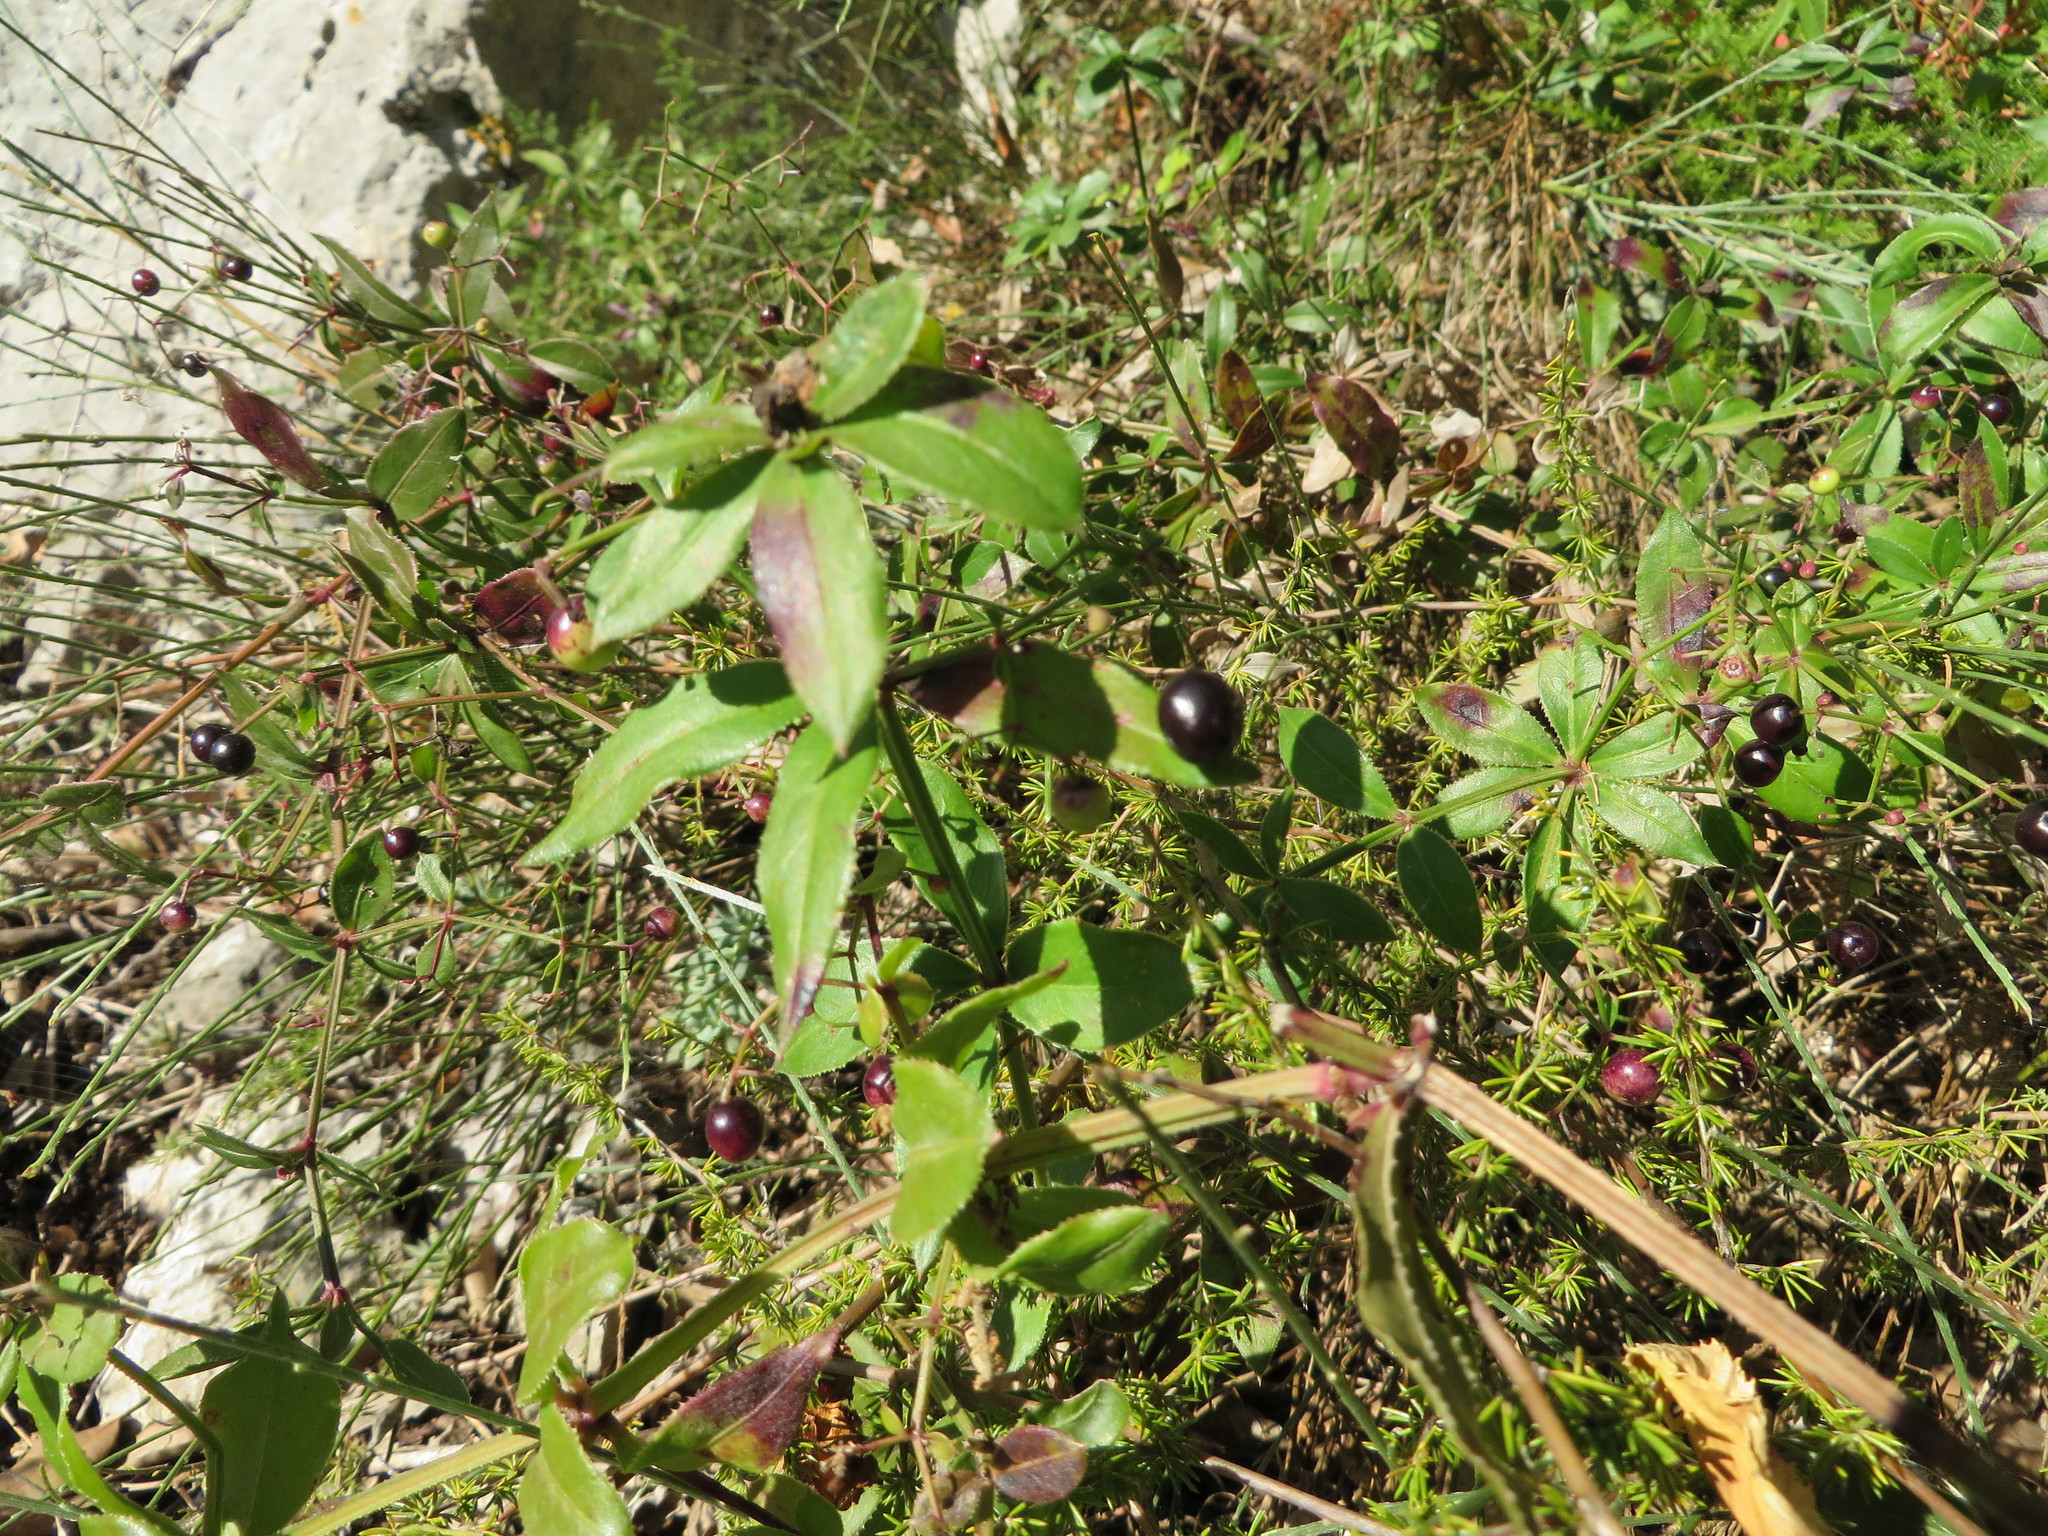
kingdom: Plantae
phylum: Tracheophyta
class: Magnoliopsida
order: Gentianales
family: Rubiaceae
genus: Rubia
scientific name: Rubia peregrina
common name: Wild madder
